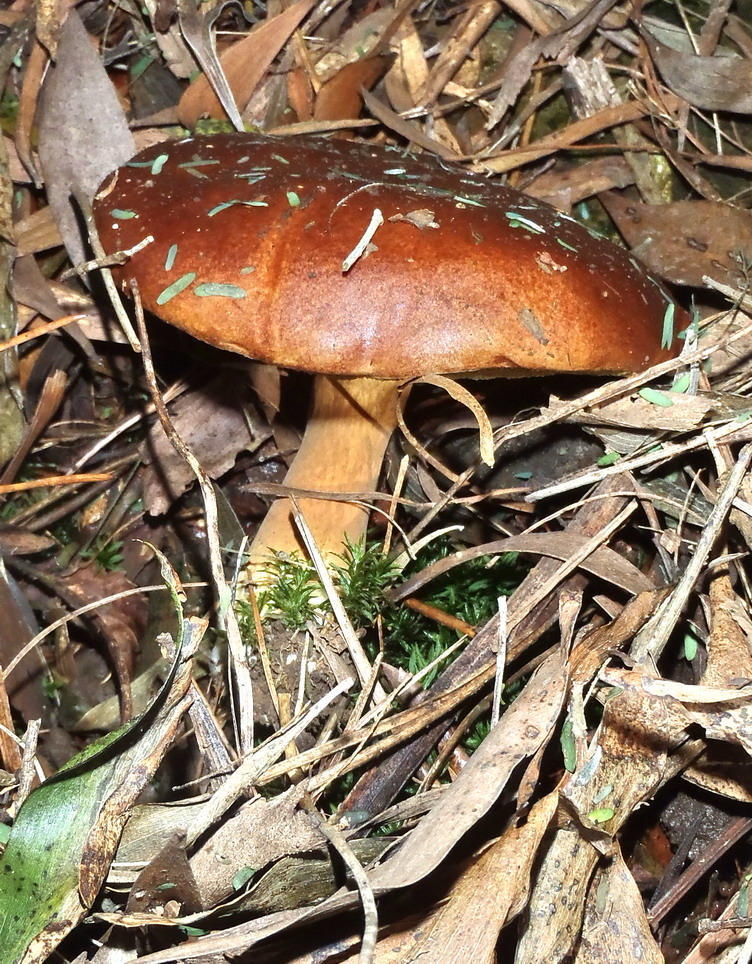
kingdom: Fungi
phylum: Basidiomycota
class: Agaricomycetes
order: Boletales
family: Boletaceae
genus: Imleria
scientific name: Imleria badia
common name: Bay bolete
